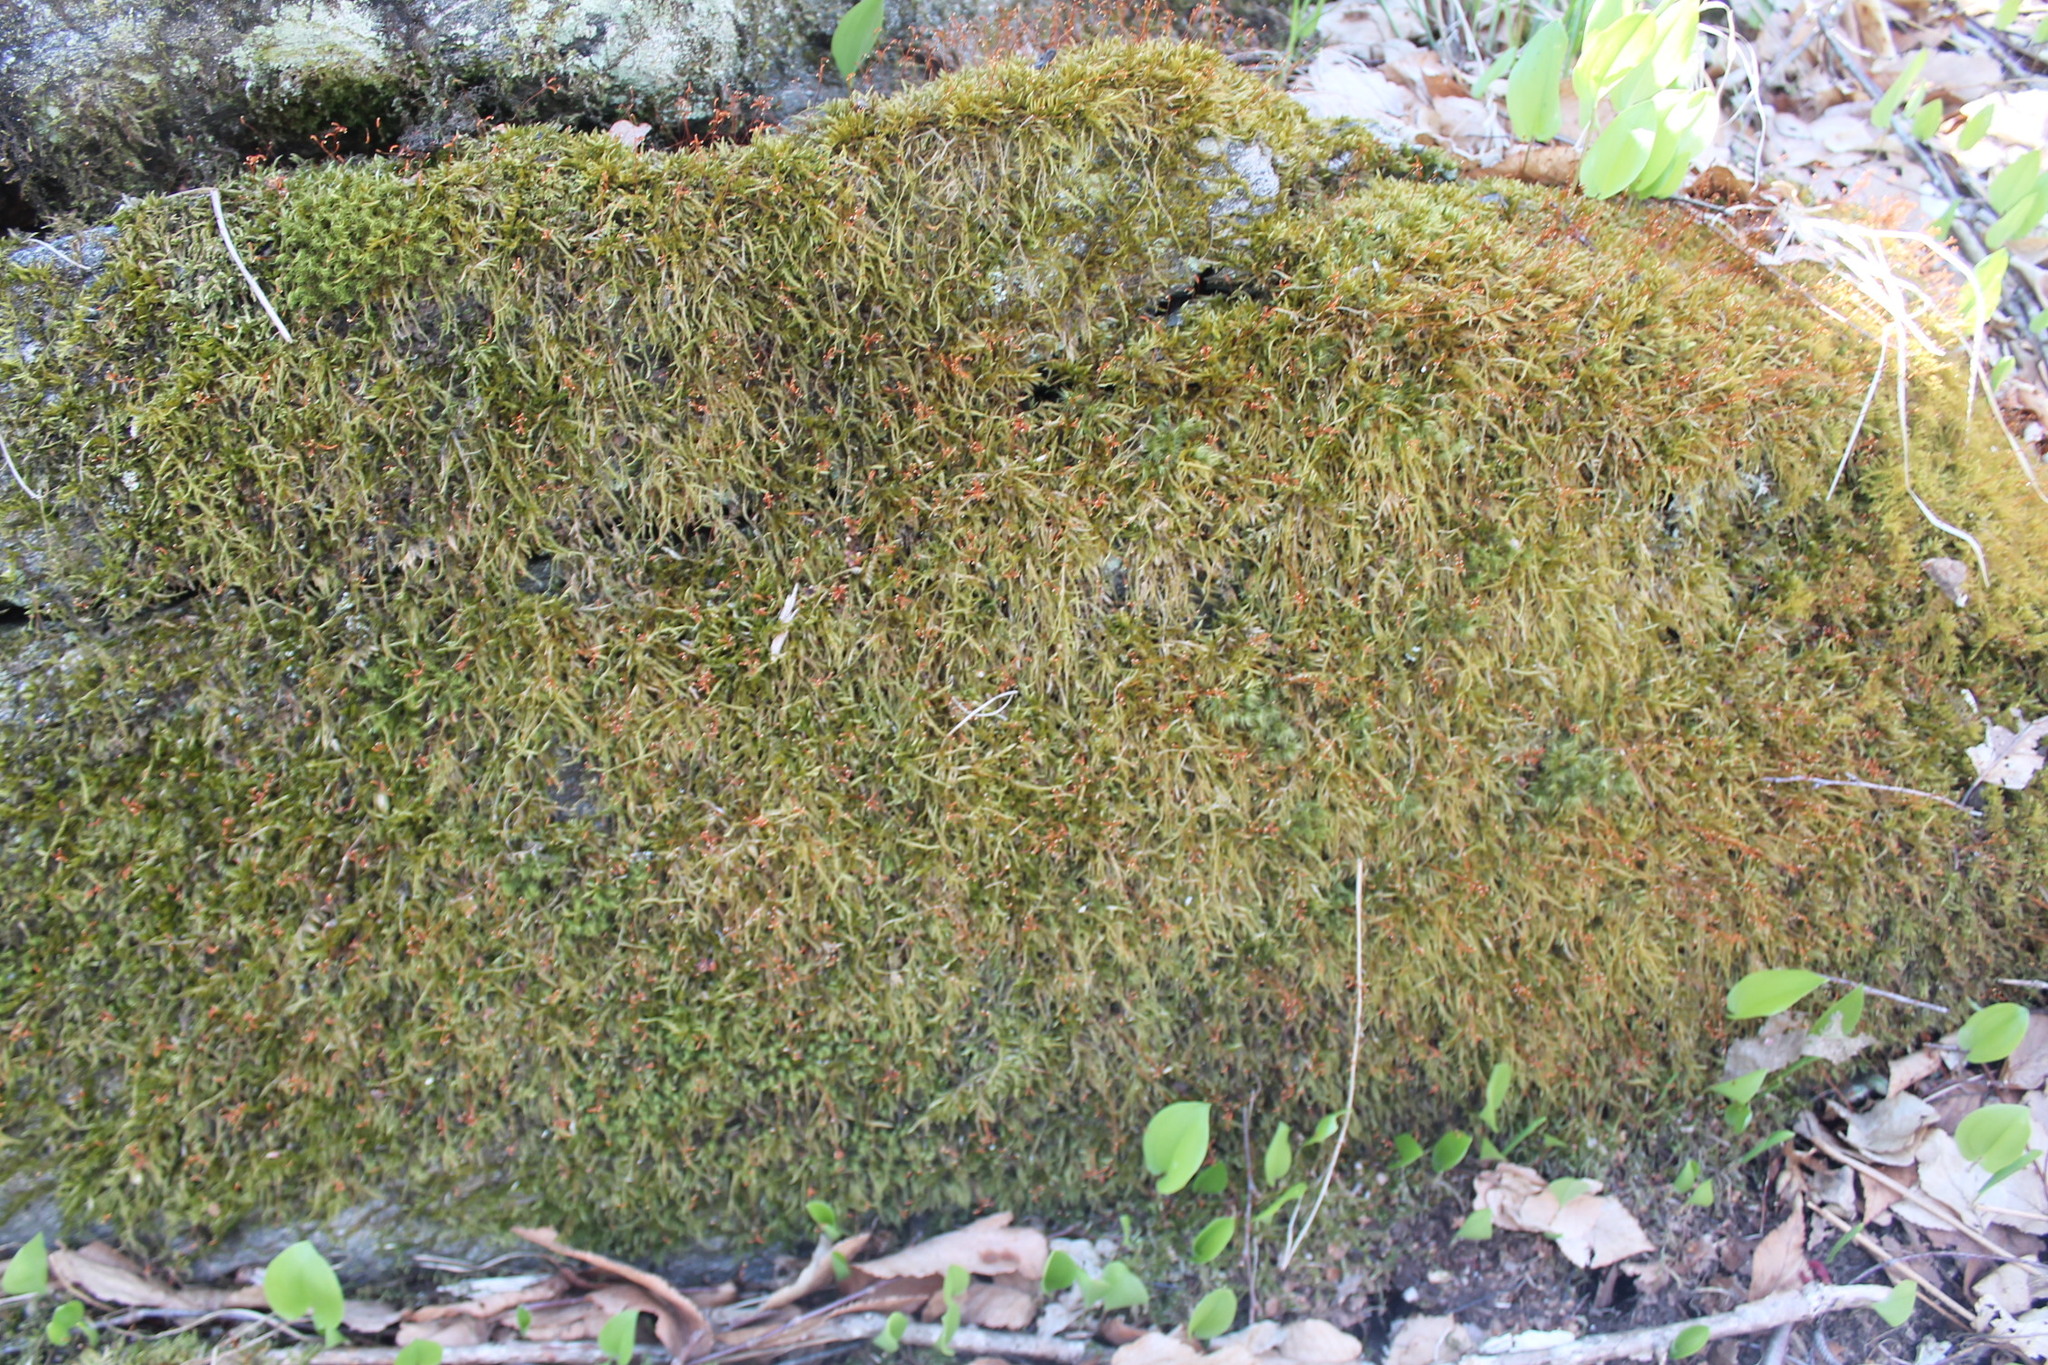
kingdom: Plantae
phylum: Bryophyta
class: Bryopsida
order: Hypnales
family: Callicladiaceae
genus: Callicladium
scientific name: Callicladium haldanianum
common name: Beautiful branch moss
